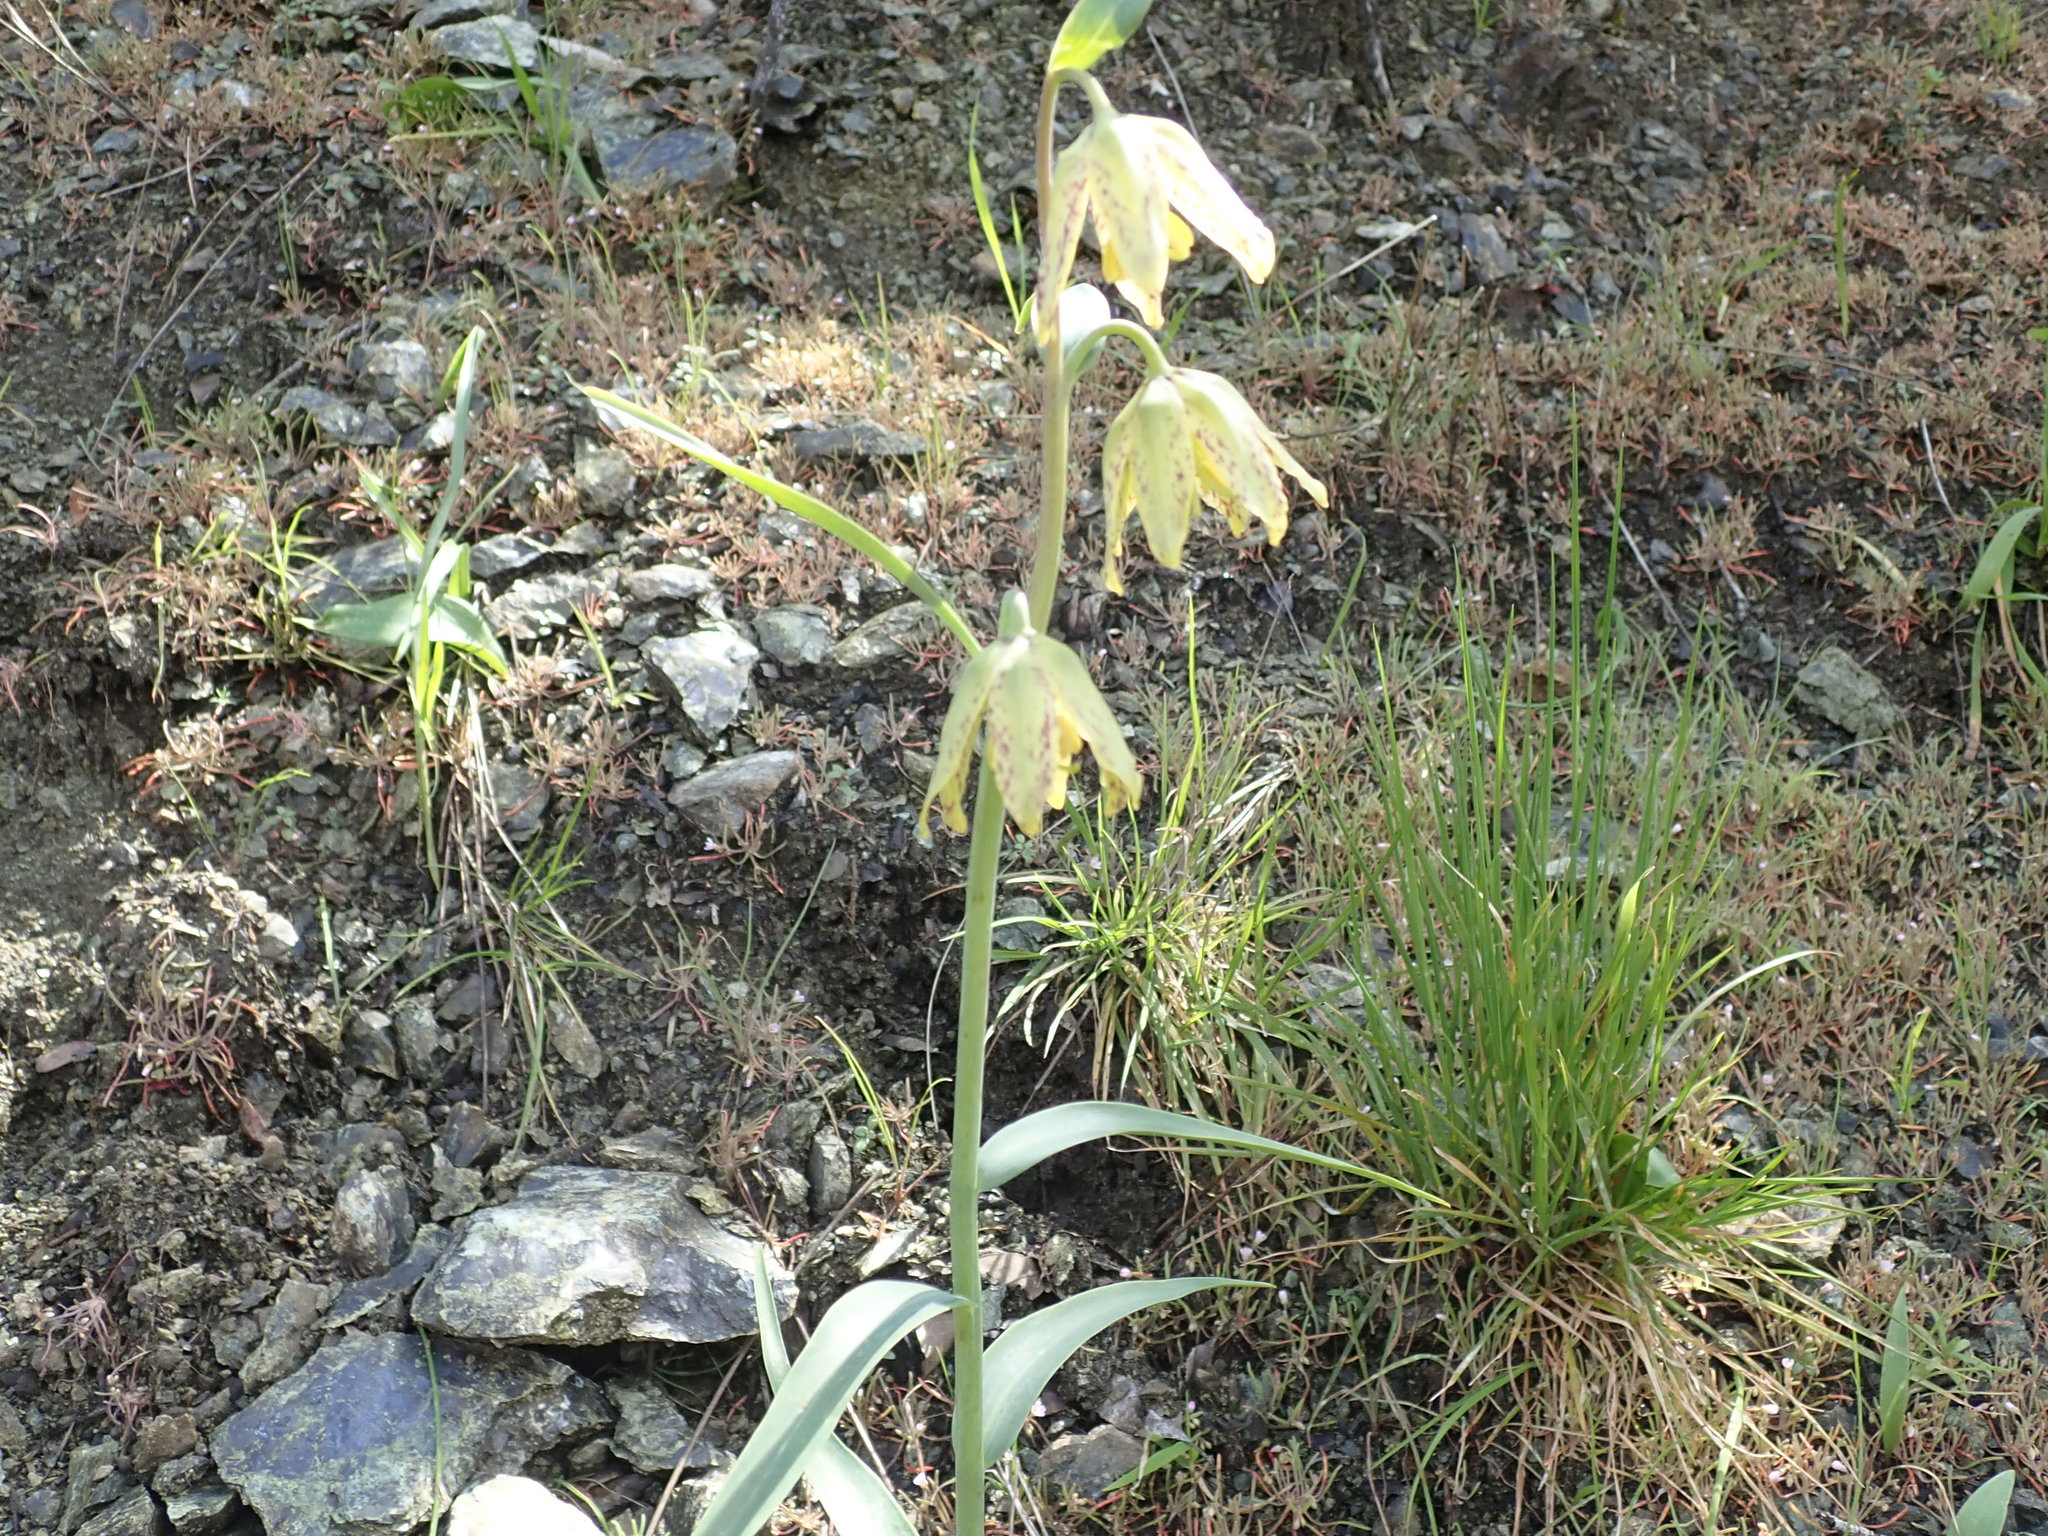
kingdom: Plantae
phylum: Tracheophyta
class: Liliopsida
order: Liliales
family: Liliaceae
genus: Fritillaria
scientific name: Fritillaria affinis
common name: Ojai fritillary
